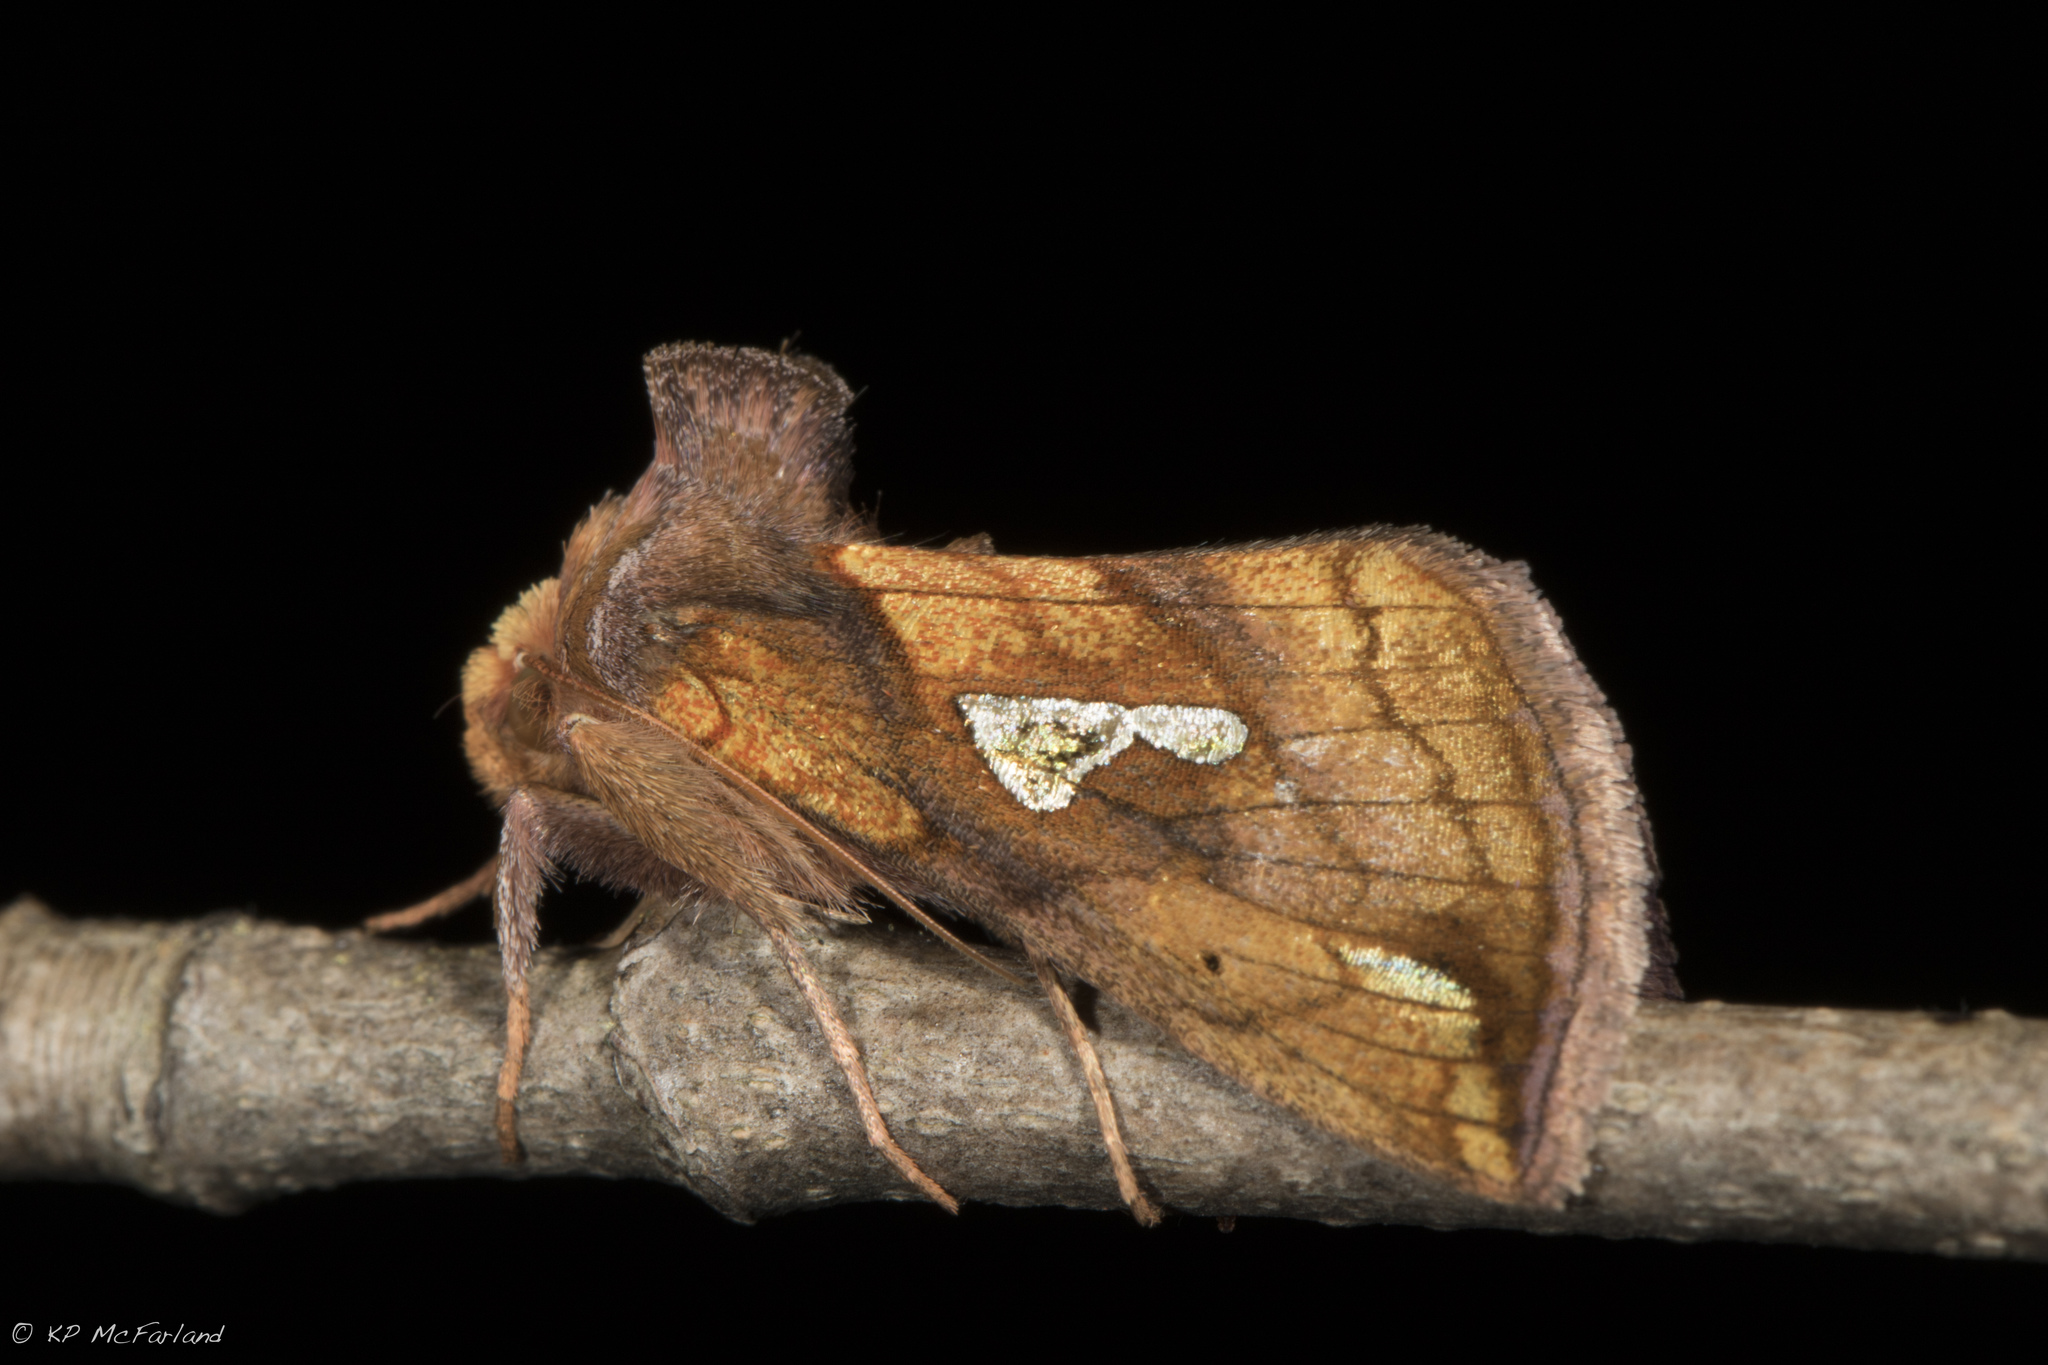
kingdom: Animalia
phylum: Arthropoda
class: Insecta
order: Lepidoptera
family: Noctuidae
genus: Plusia
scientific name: Plusia putnami
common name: Lempke's gold spot
